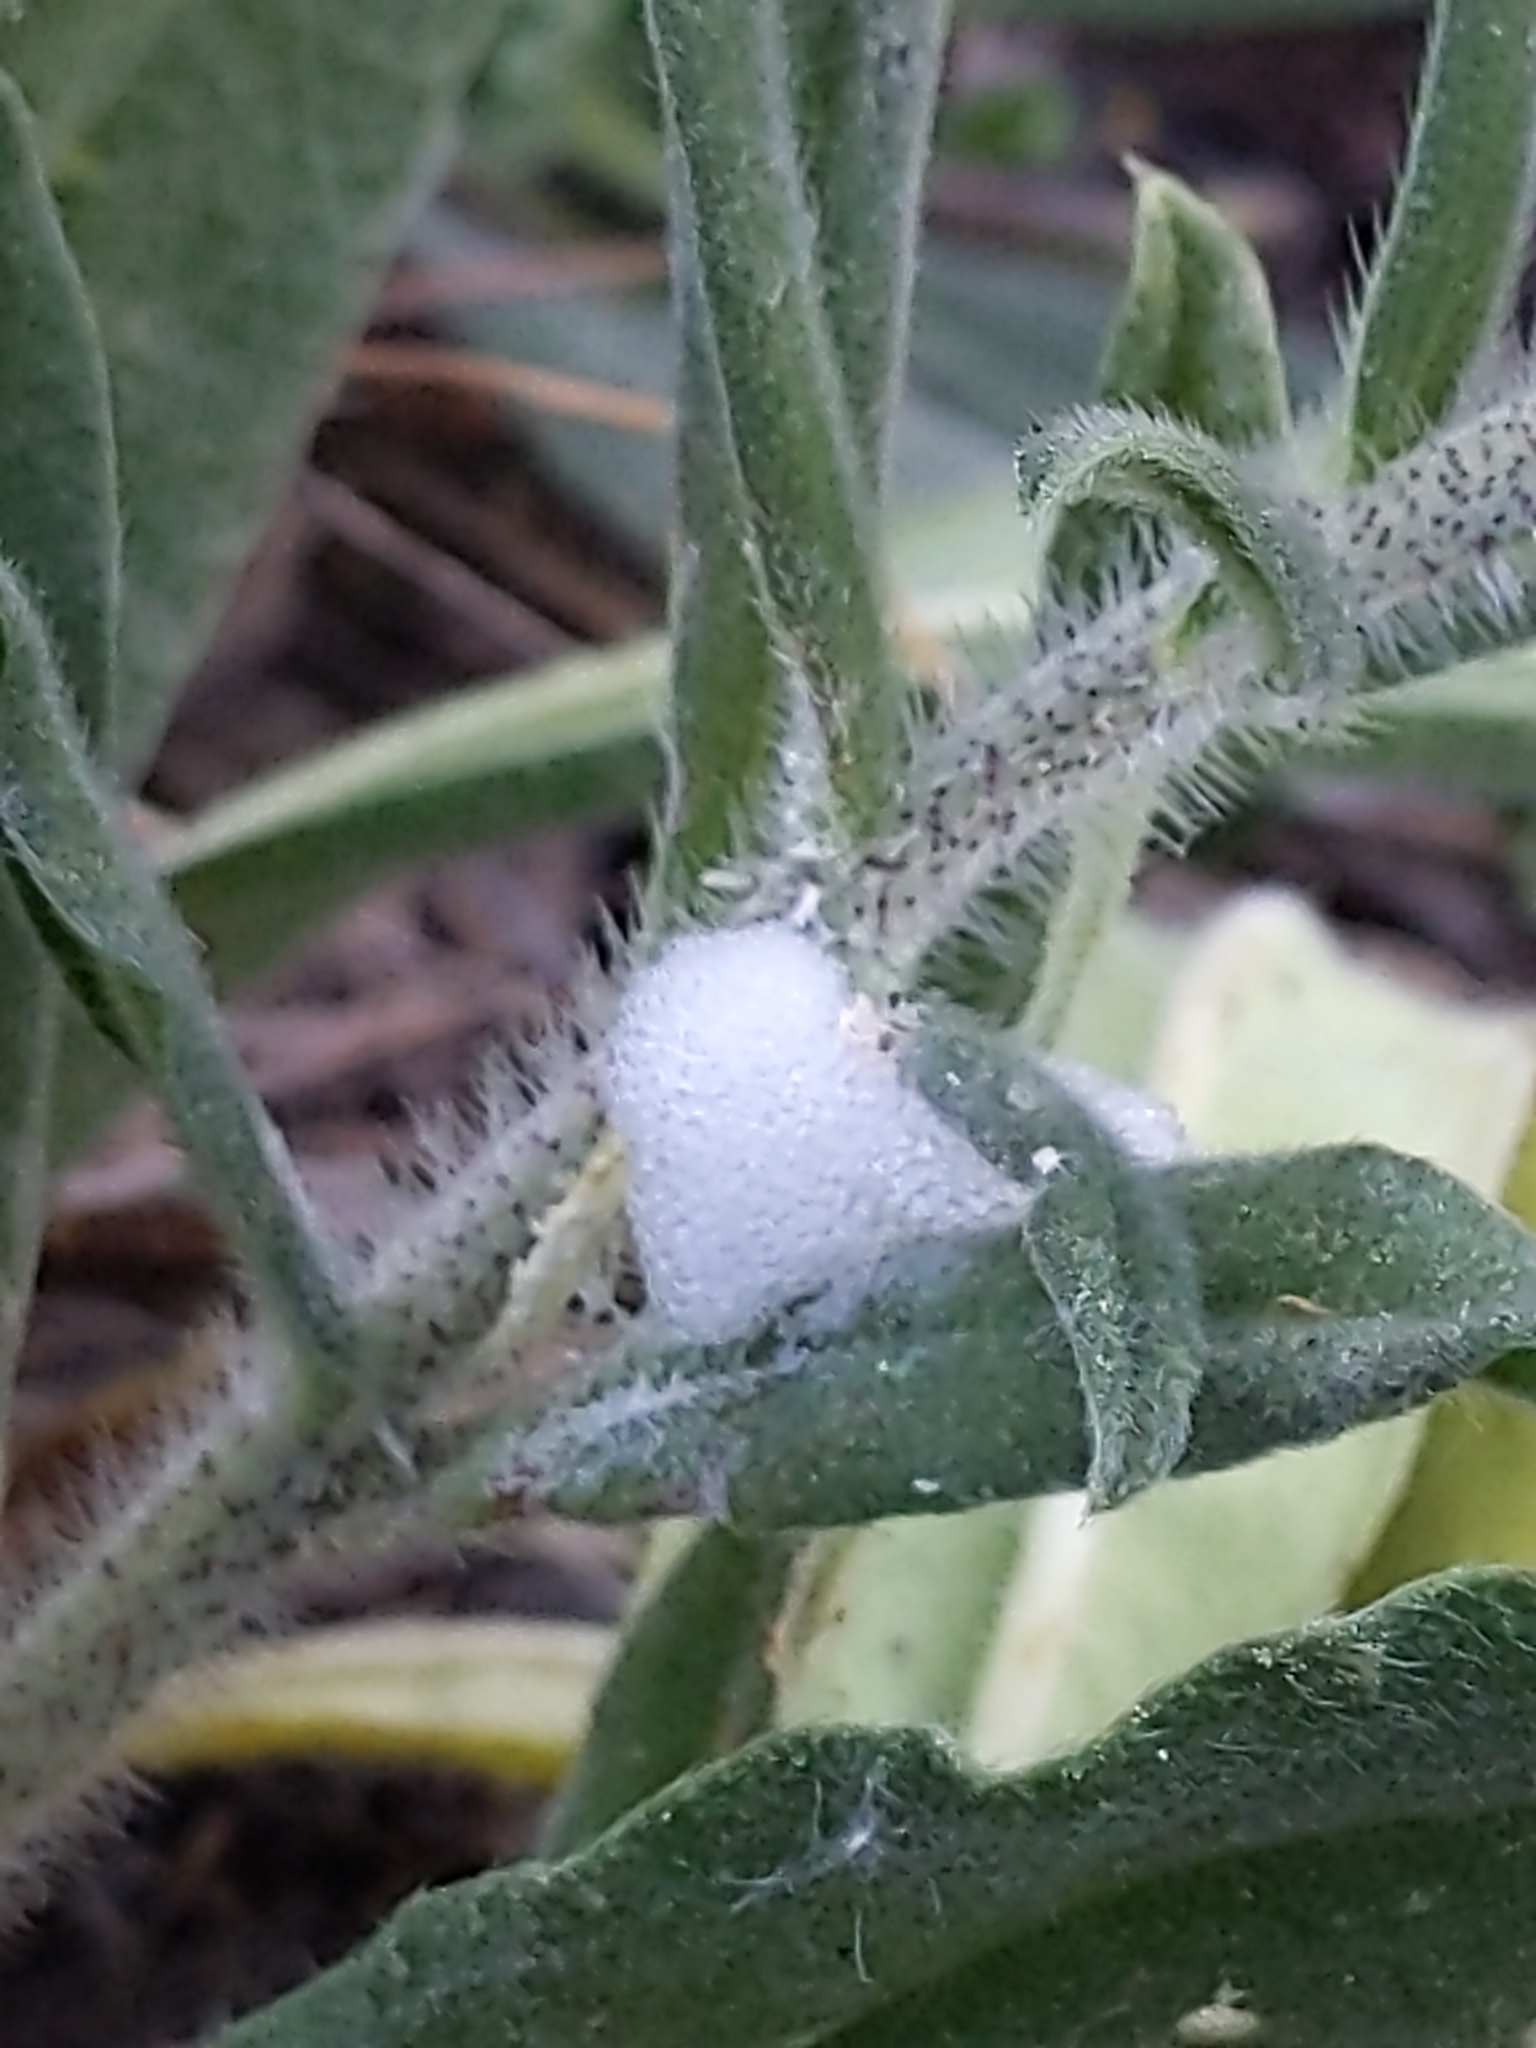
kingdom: Animalia
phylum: Arthropoda
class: Insecta
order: Hemiptera
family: Aphrophoridae
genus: Philaenus
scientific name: Philaenus spumarius
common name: Meadow spittlebug
